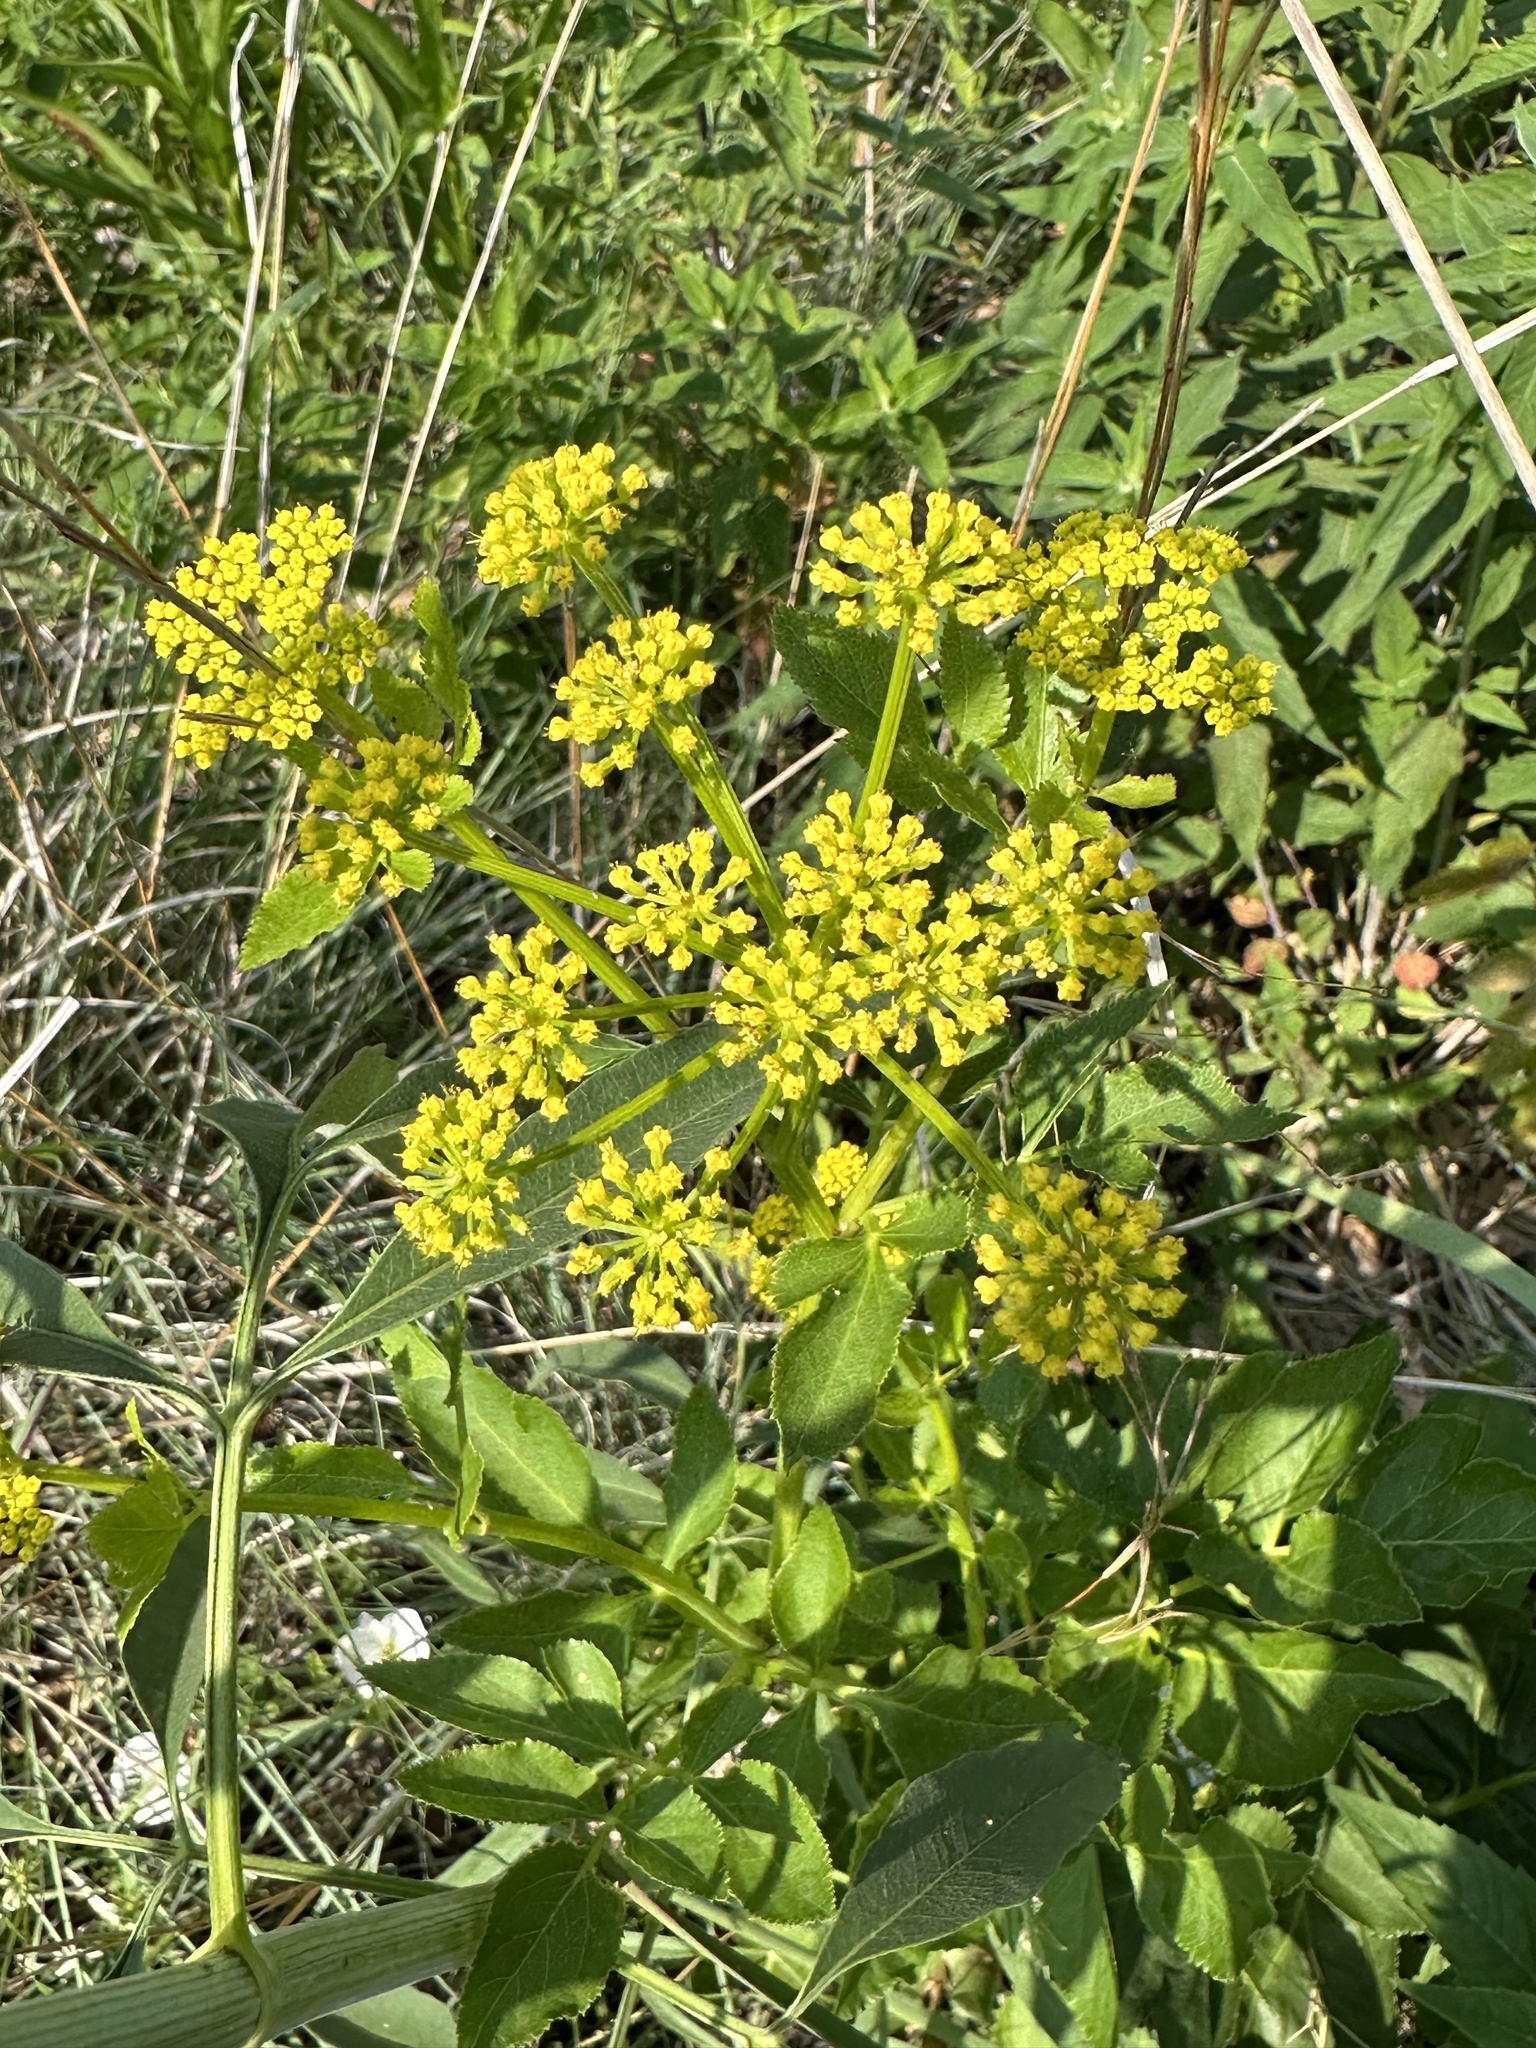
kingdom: Plantae
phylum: Tracheophyta
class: Magnoliopsida
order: Apiales
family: Apiaceae
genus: Zizia
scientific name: Zizia aurea
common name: Golden alexanders
